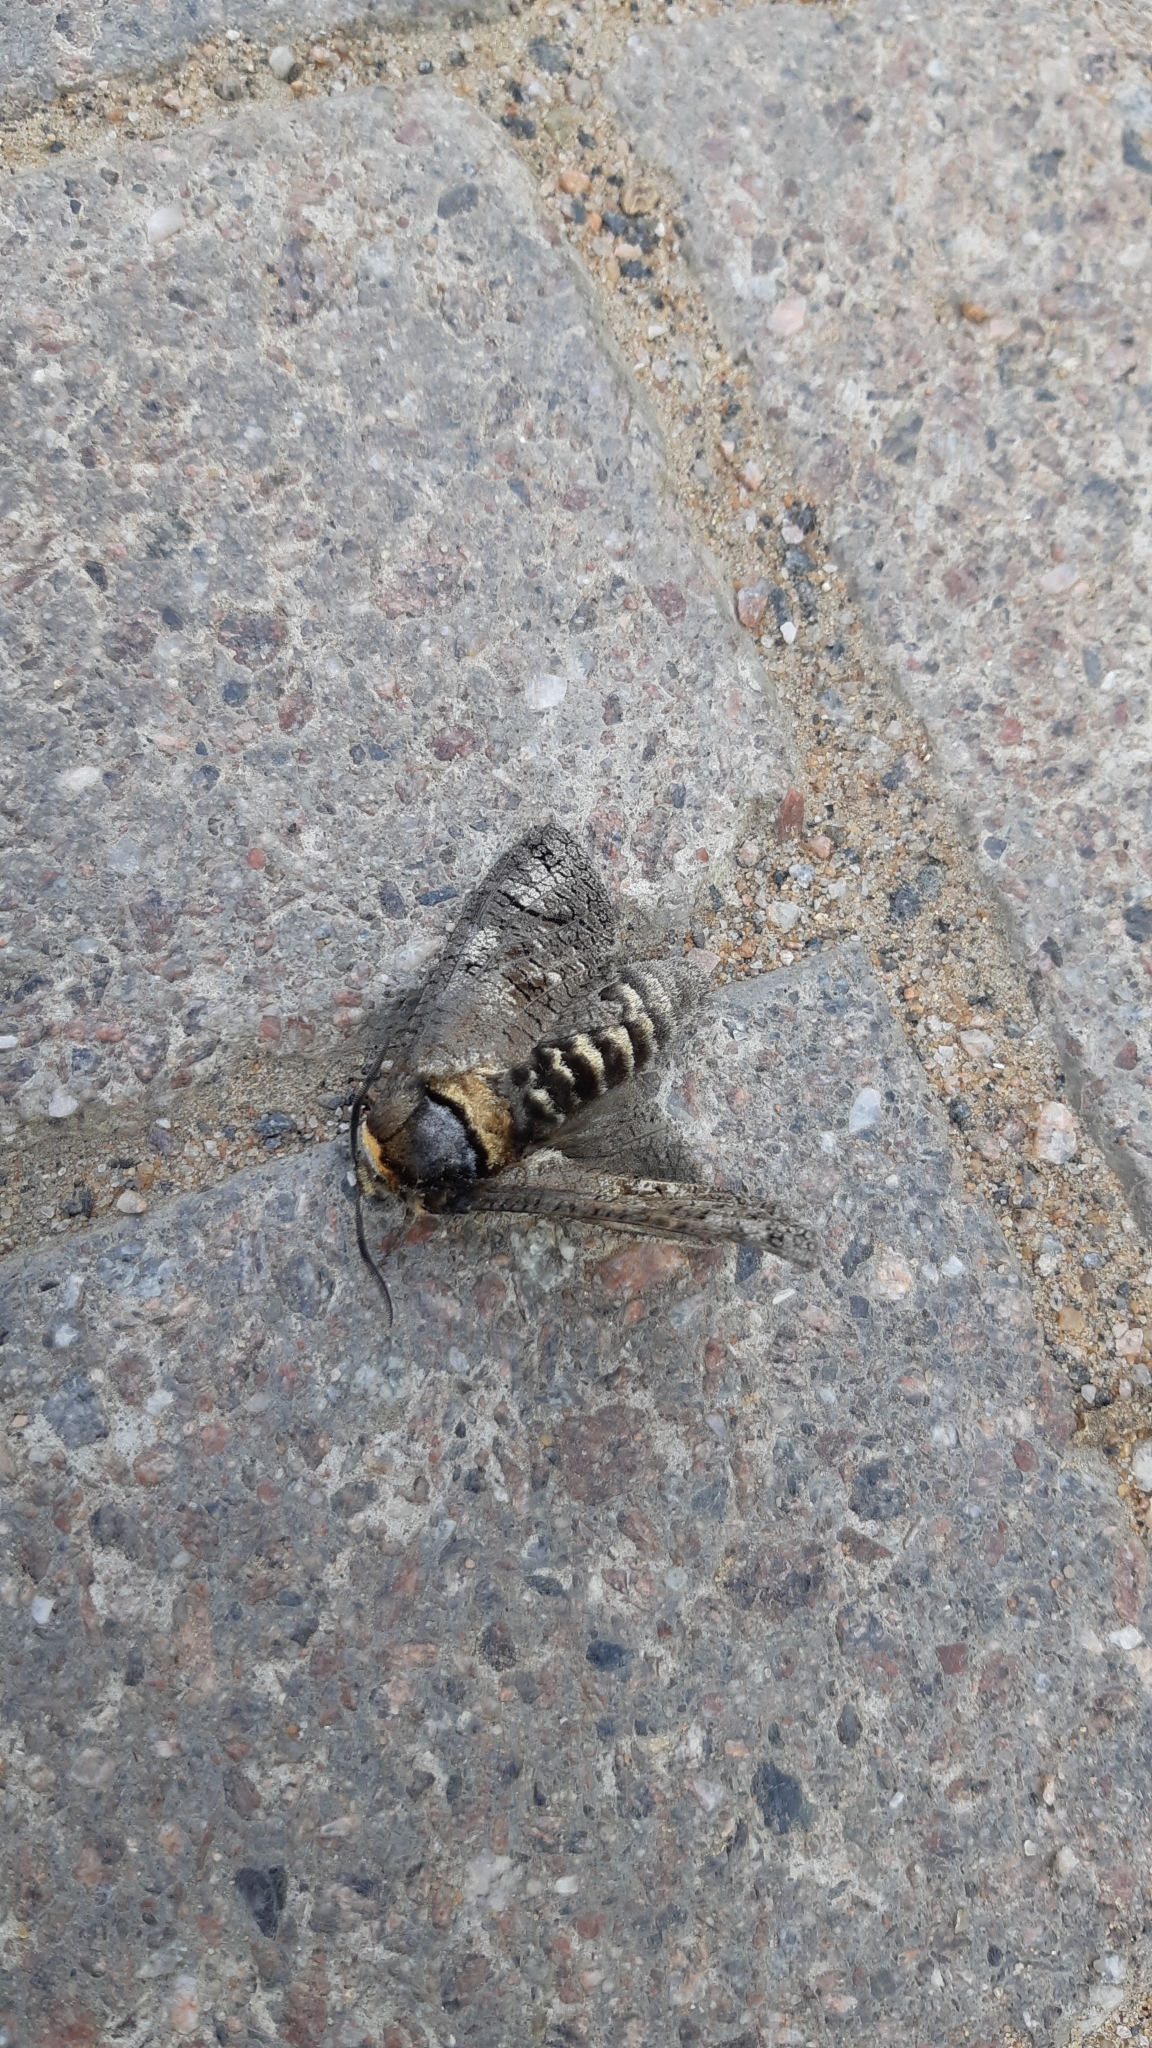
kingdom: Animalia
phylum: Arthropoda
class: Insecta
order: Lepidoptera
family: Cossidae
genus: Cossus
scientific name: Cossus cossus
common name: Goat moth
